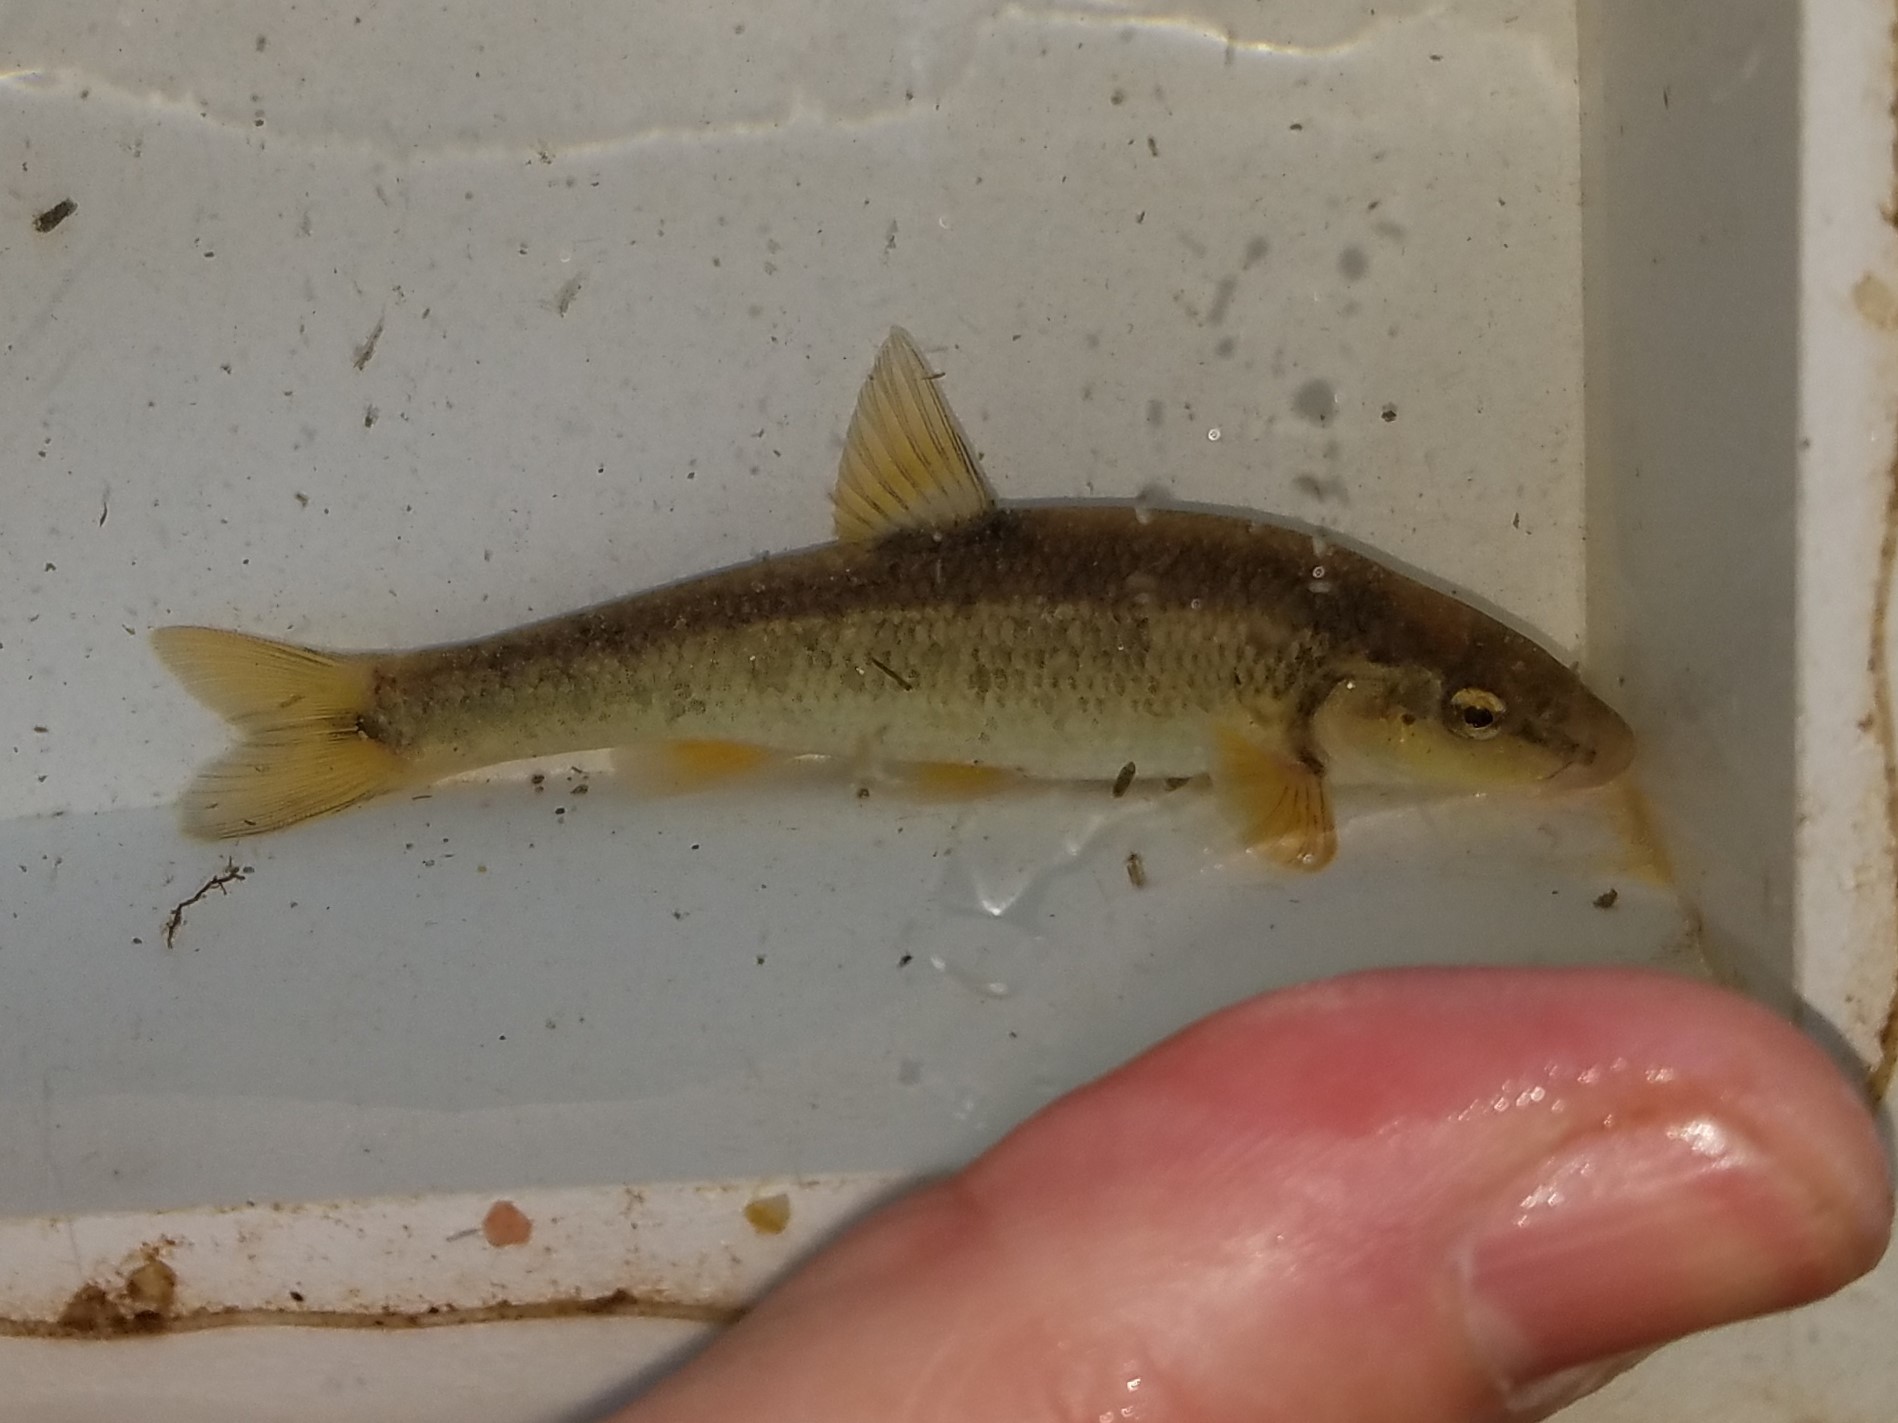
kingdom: Animalia
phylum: Chordata
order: Cypriniformes
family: Cyprinidae
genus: Campostoma
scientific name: Campostoma oligolepis
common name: Largescale stoneroller
